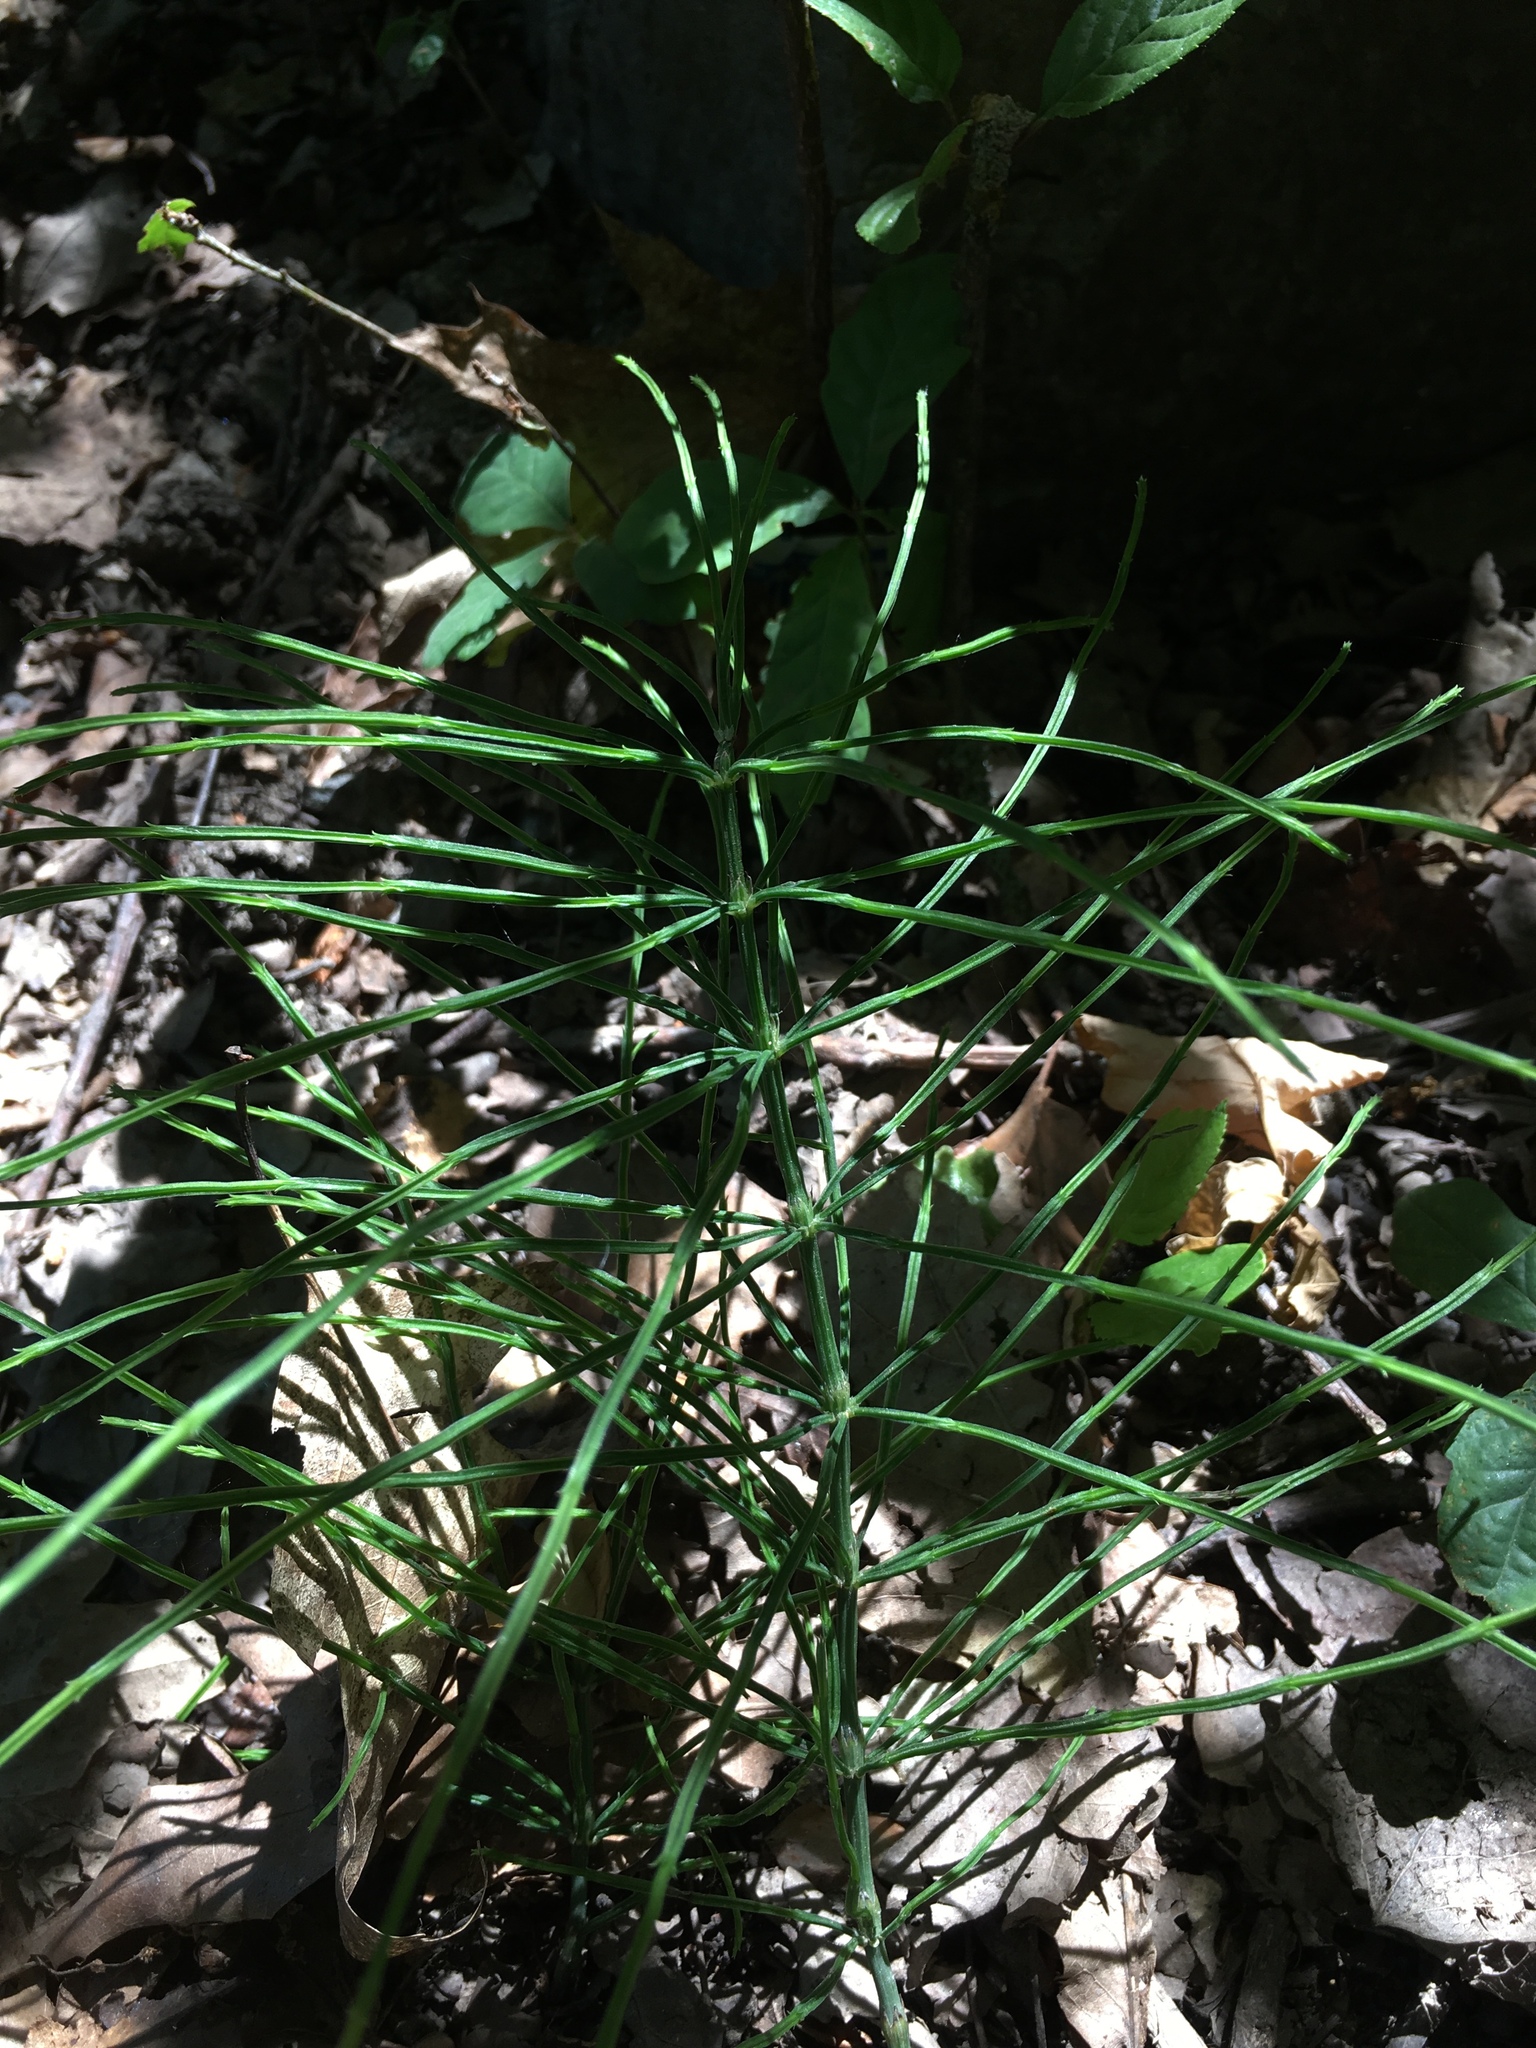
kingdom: Plantae
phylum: Tracheophyta
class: Polypodiopsida
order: Equisetales
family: Equisetaceae
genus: Equisetum
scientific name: Equisetum arvense
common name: Field horsetail
